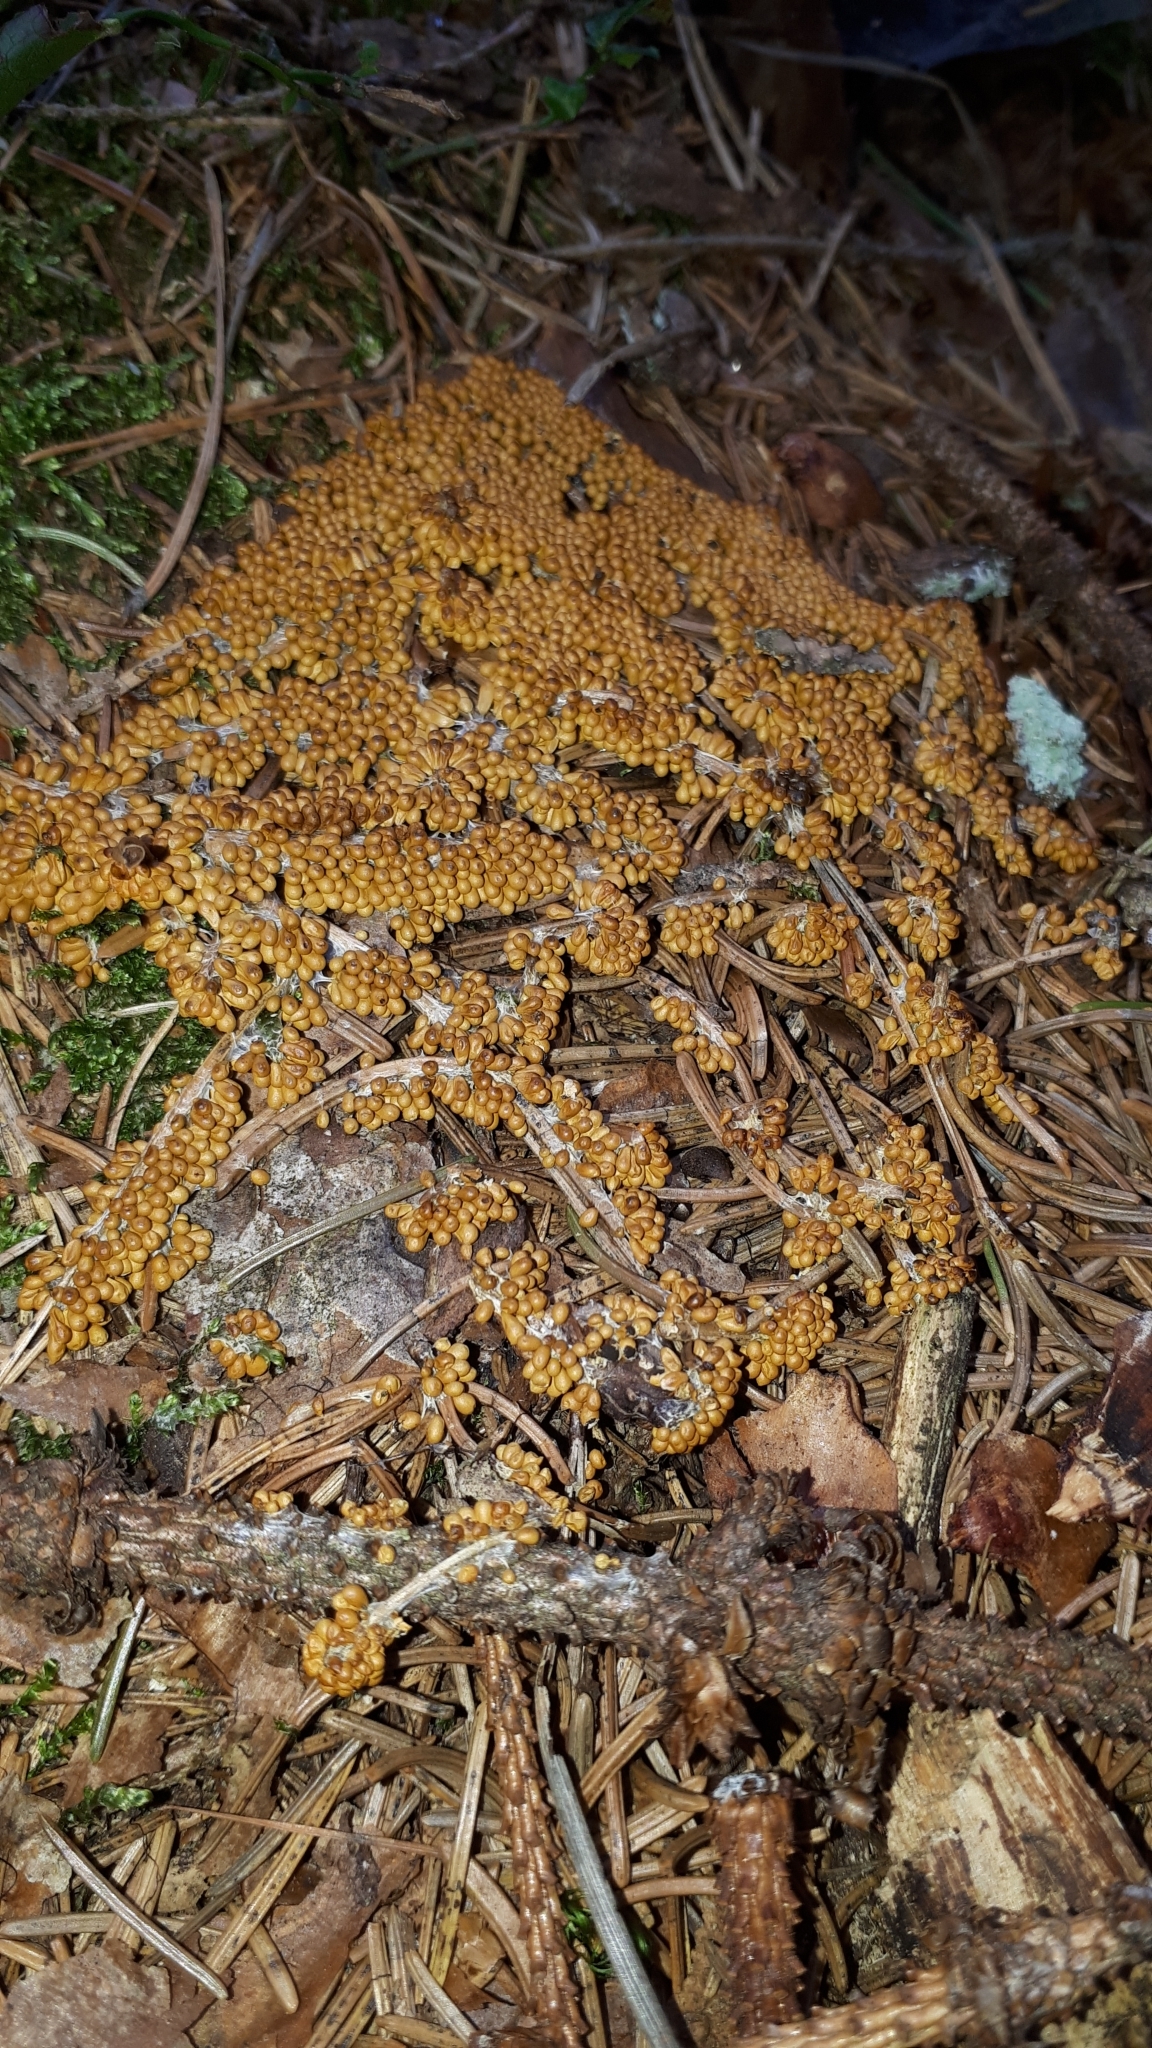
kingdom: Protozoa
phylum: Mycetozoa
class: Myxomycetes
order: Physarales
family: Physaraceae
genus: Leocarpus
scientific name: Leocarpus fragilis
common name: Insect-egg slime
